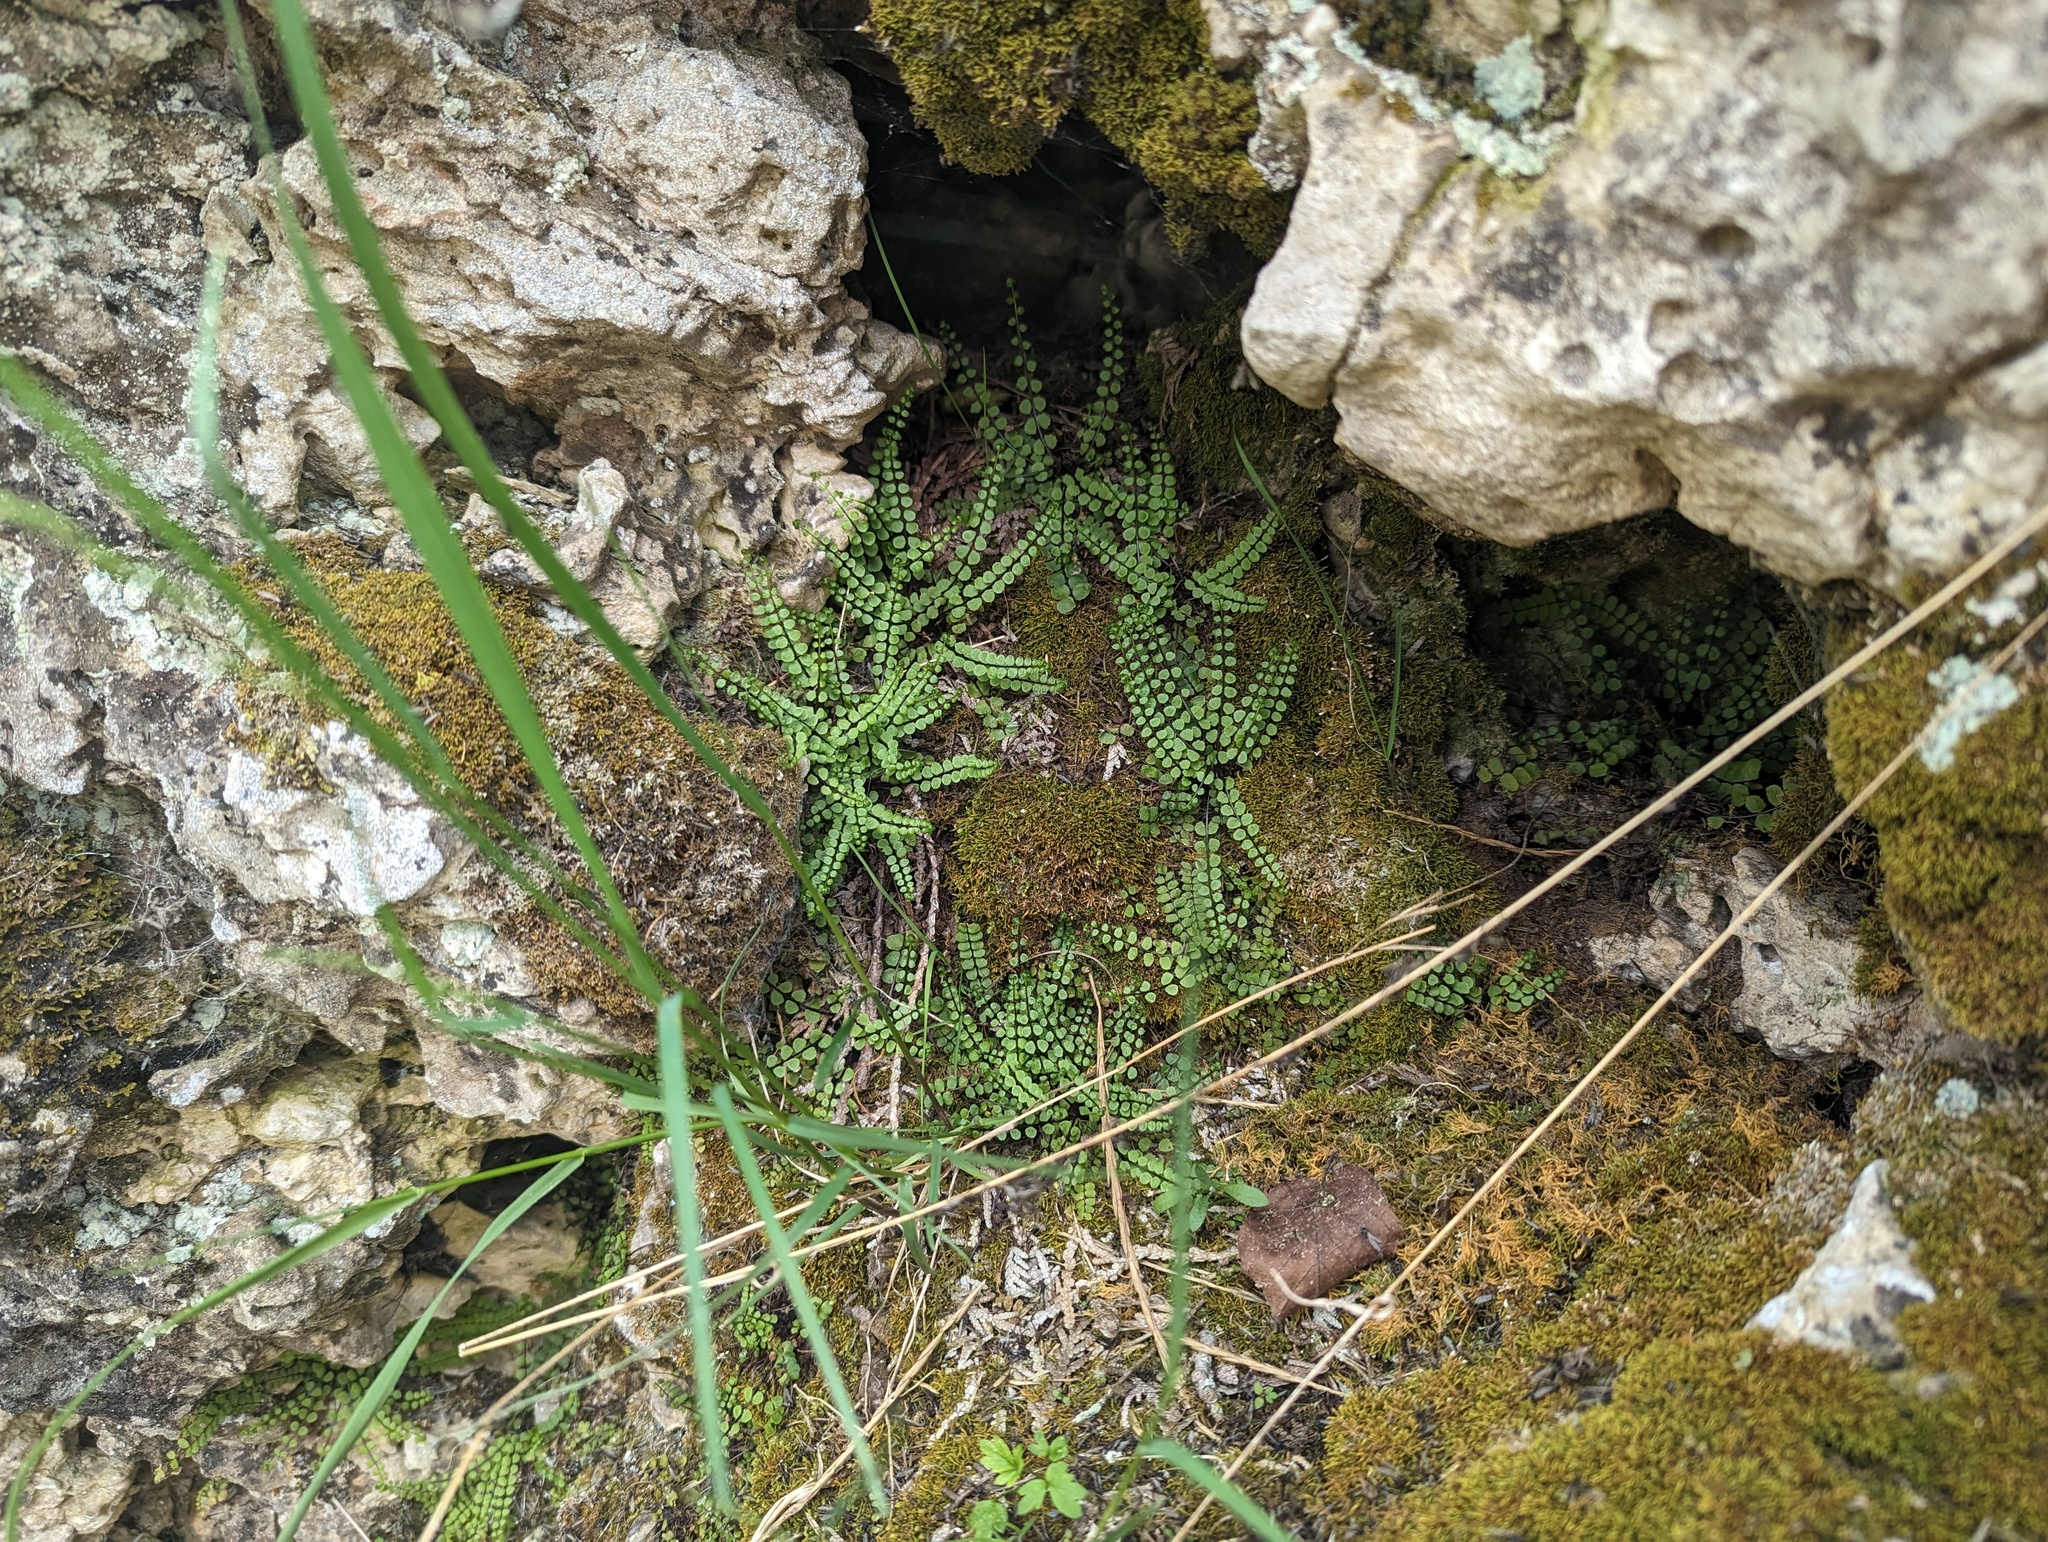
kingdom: Plantae
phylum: Tracheophyta
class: Polypodiopsida
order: Polypodiales
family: Aspleniaceae
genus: Asplenium
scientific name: Asplenium trichomanes
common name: Maidenhair spleenwort
